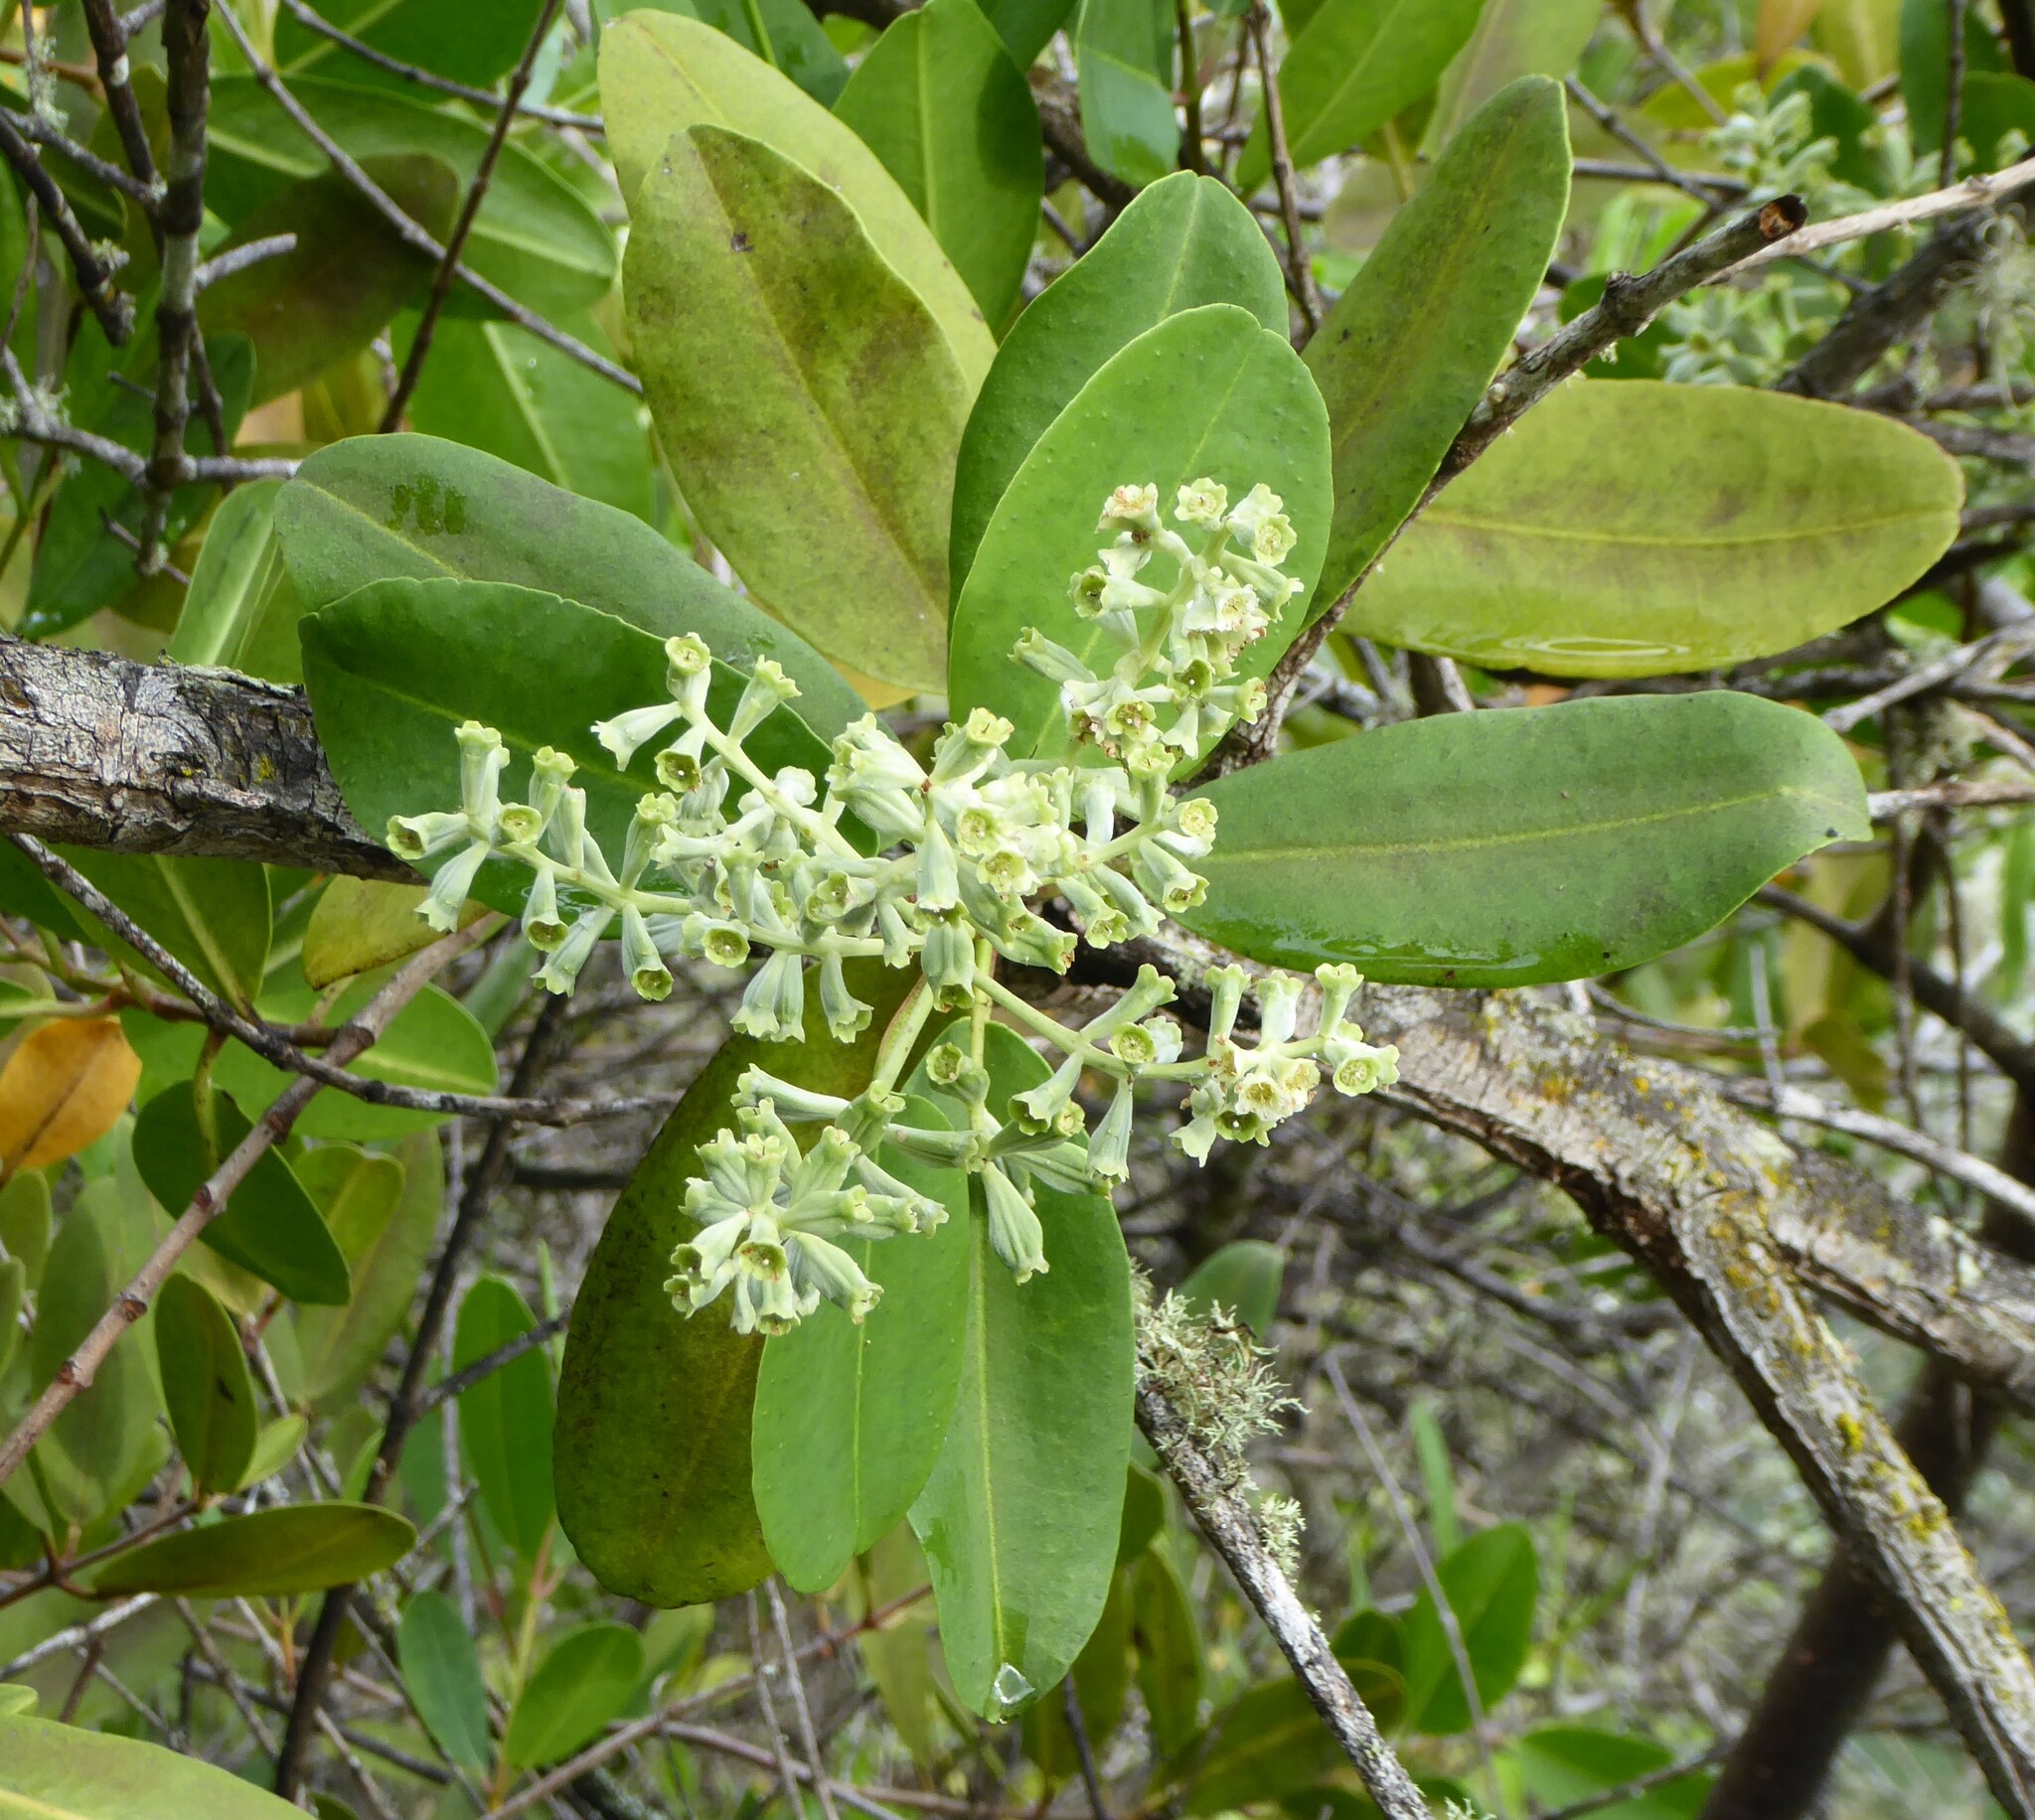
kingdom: Plantae
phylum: Tracheophyta
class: Magnoliopsida
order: Myrtales
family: Combretaceae
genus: Laguncularia
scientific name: Laguncularia racemosa
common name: White mangrove
